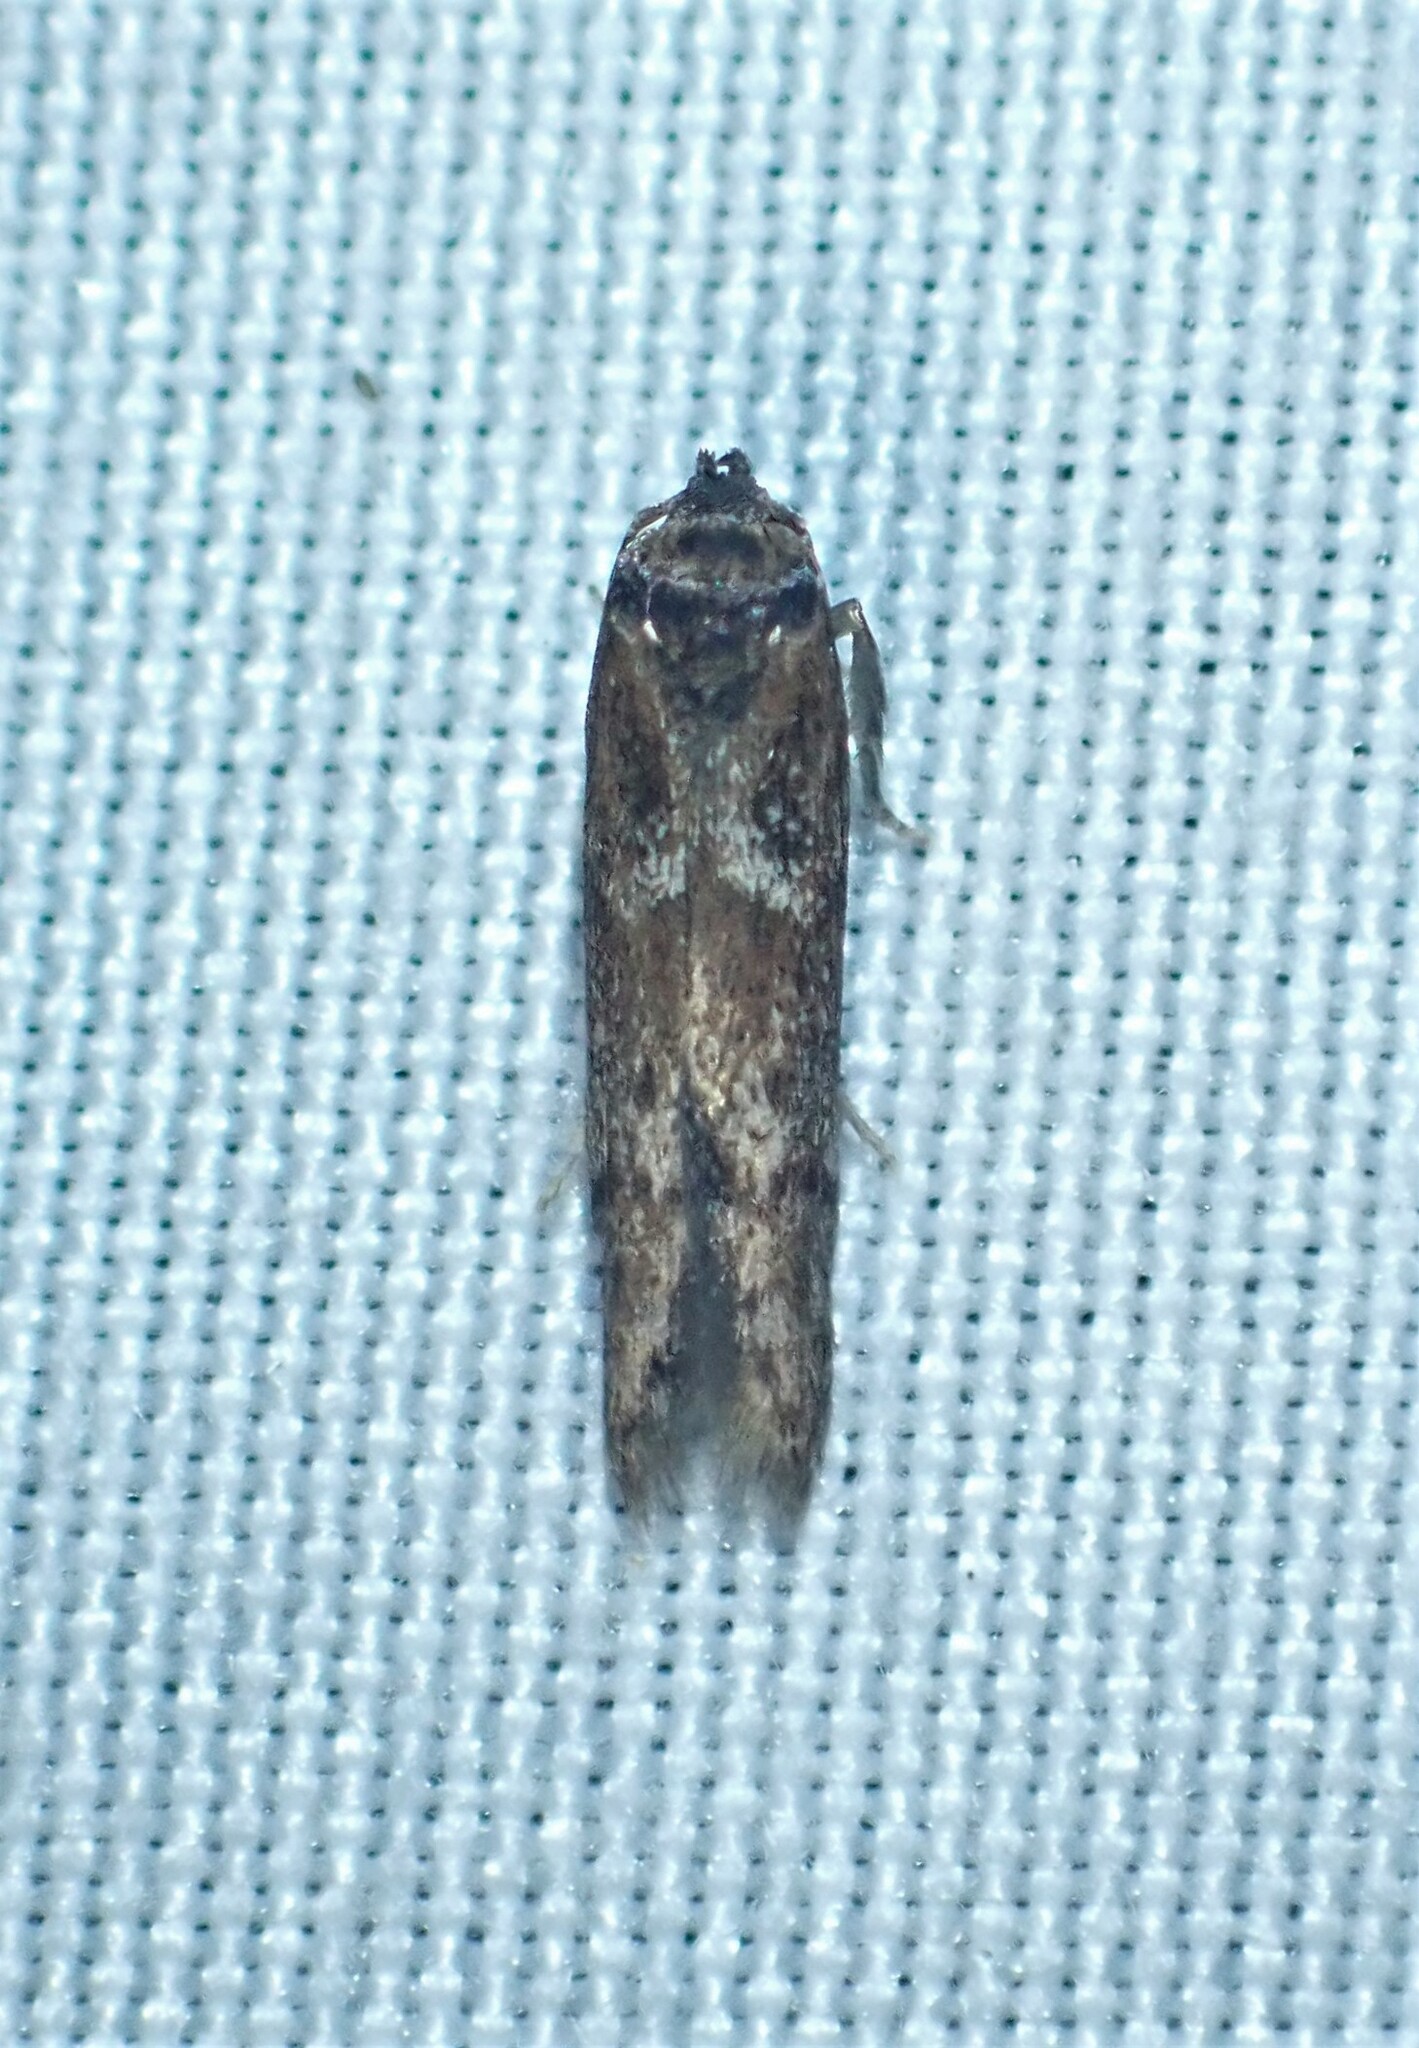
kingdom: Animalia
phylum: Arthropoda
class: Insecta
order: Lepidoptera
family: Blastobasidae
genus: Blastobasis
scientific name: Blastobasis maroccanella
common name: Blastobasid moth
